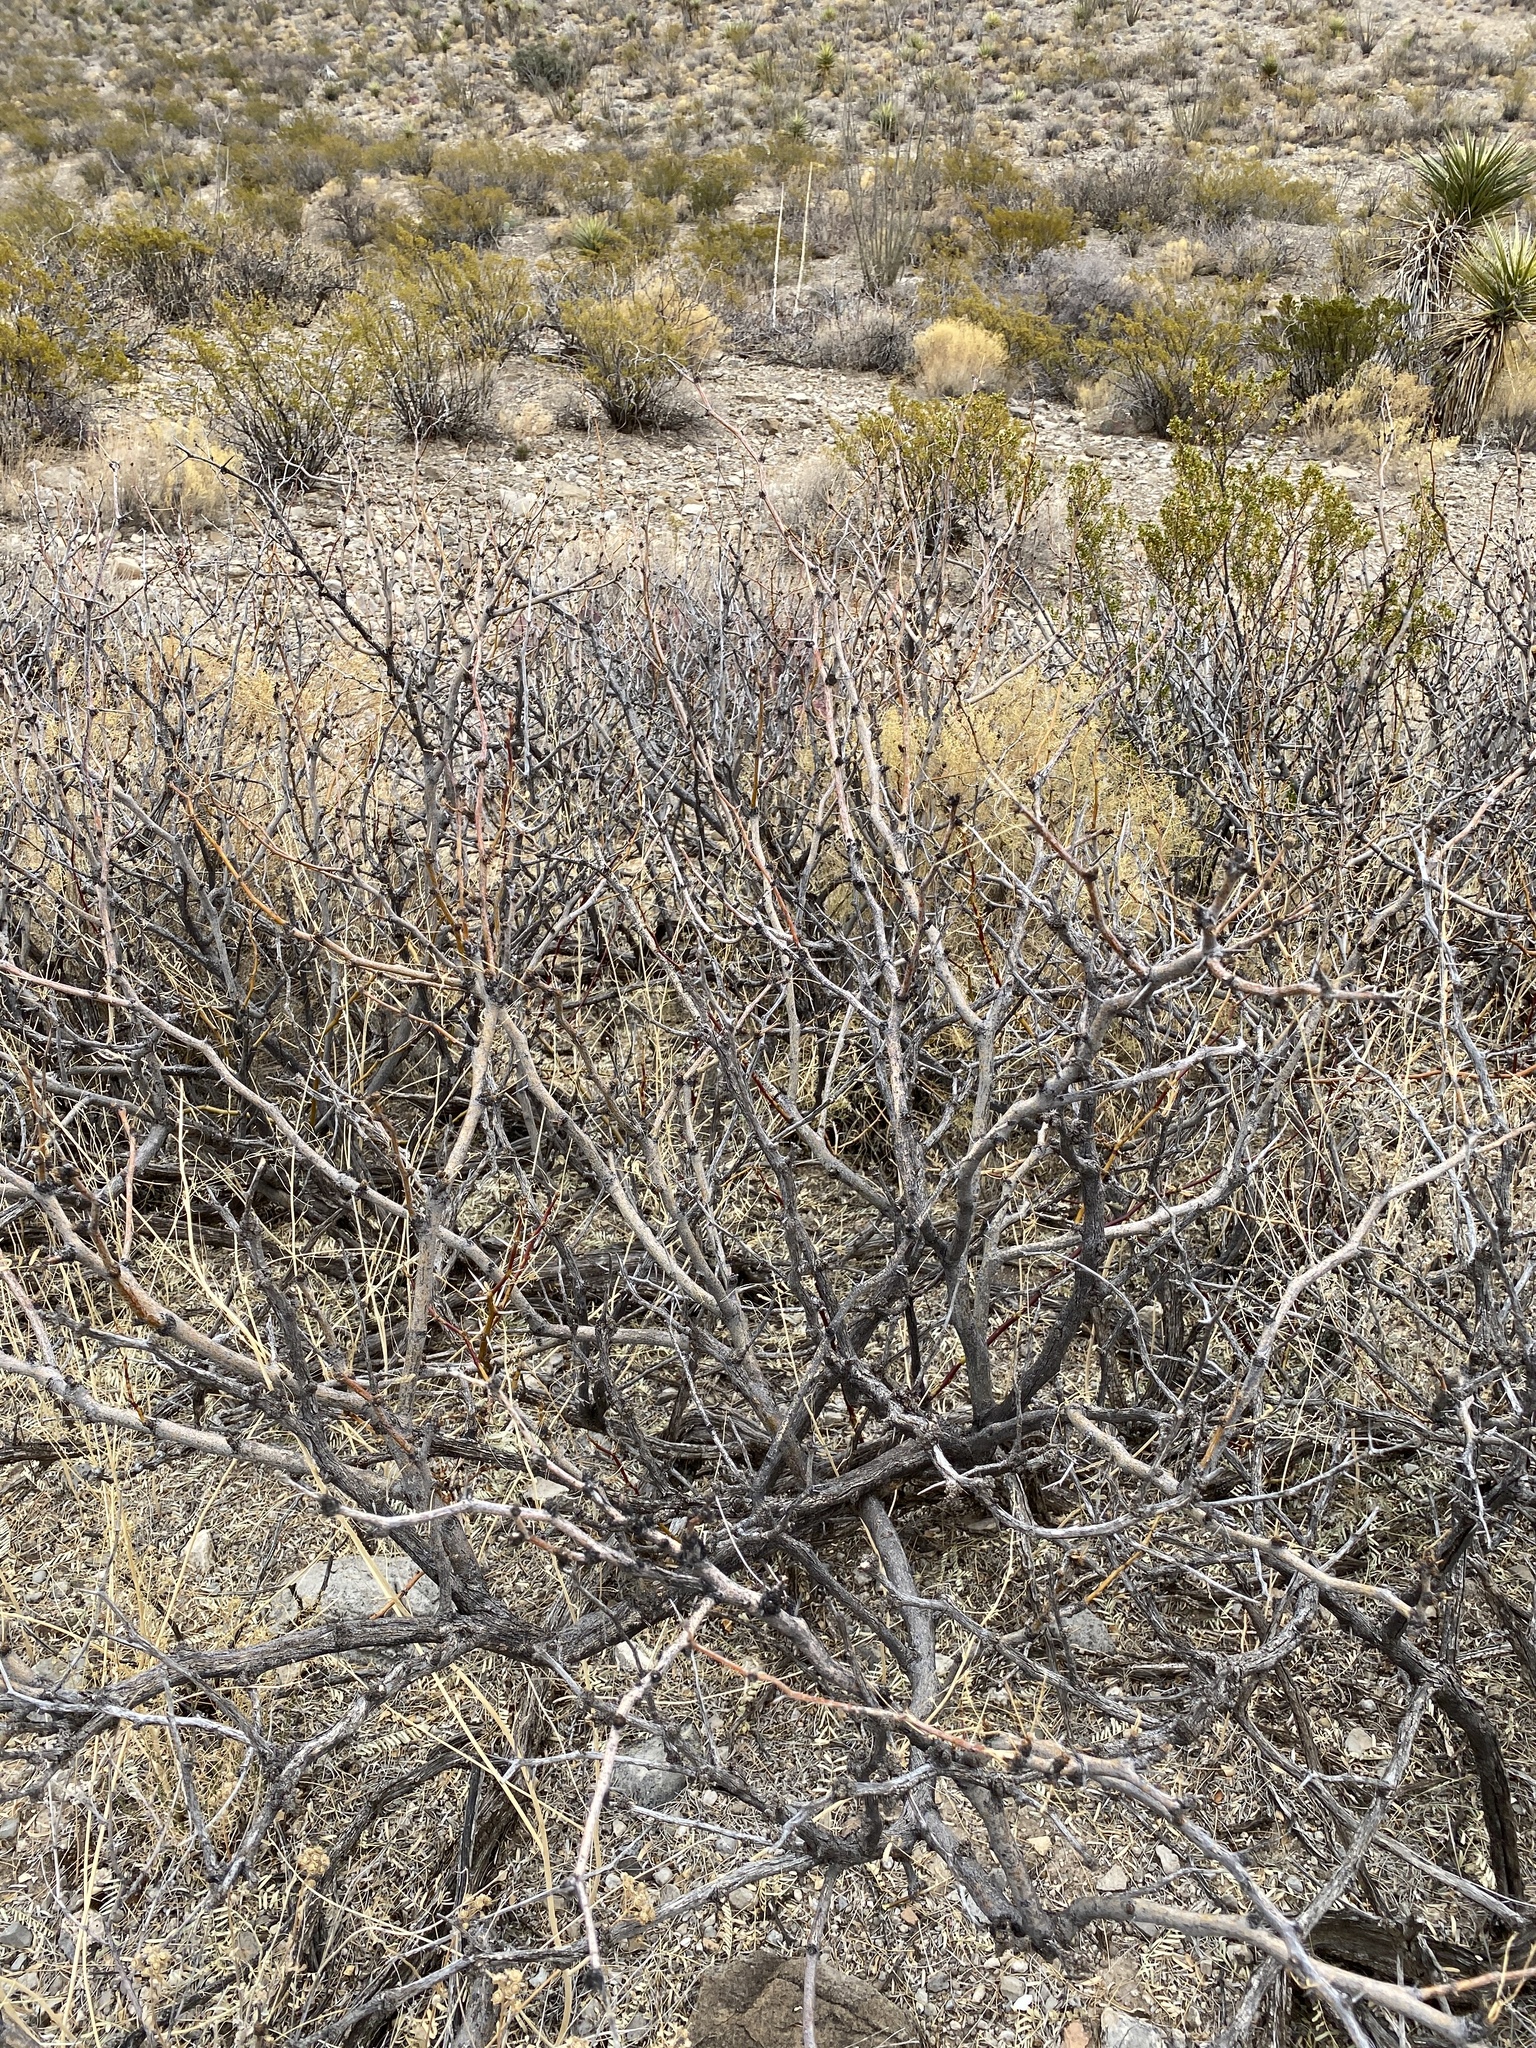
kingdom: Plantae
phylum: Tracheophyta
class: Magnoliopsida
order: Fabales
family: Fabaceae
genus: Prosopis
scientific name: Prosopis glandulosa
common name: Honey mesquite
